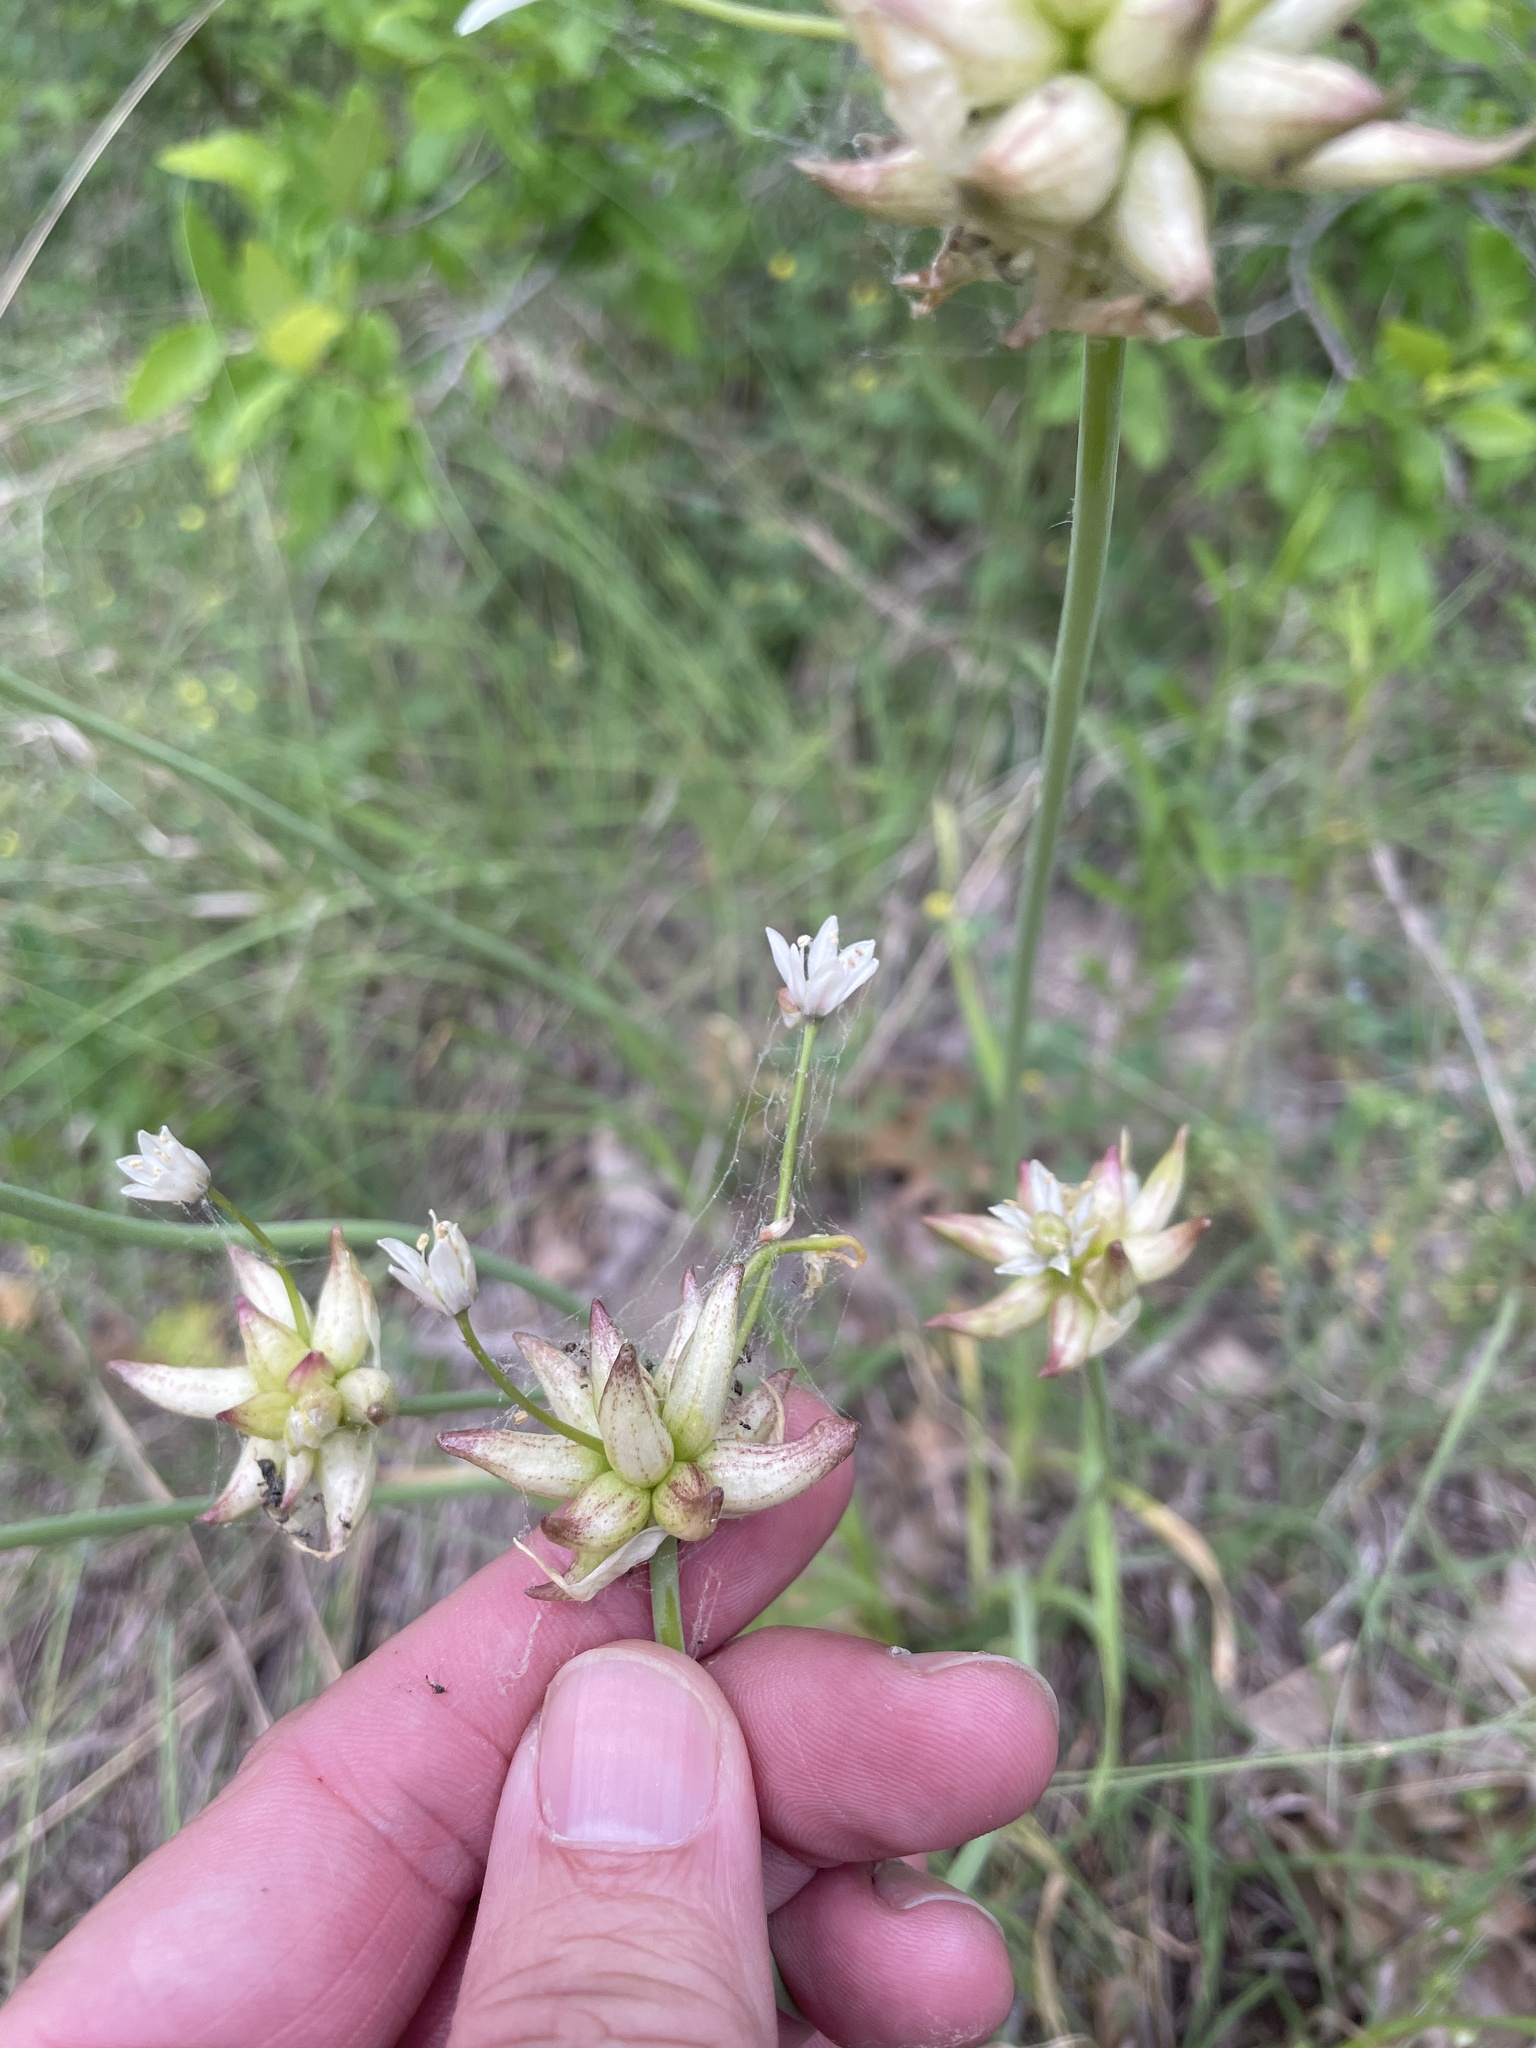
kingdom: Plantae
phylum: Tracheophyta
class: Liliopsida
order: Asparagales
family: Amaryllidaceae
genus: Allium
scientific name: Allium canadense
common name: Meadow garlic
